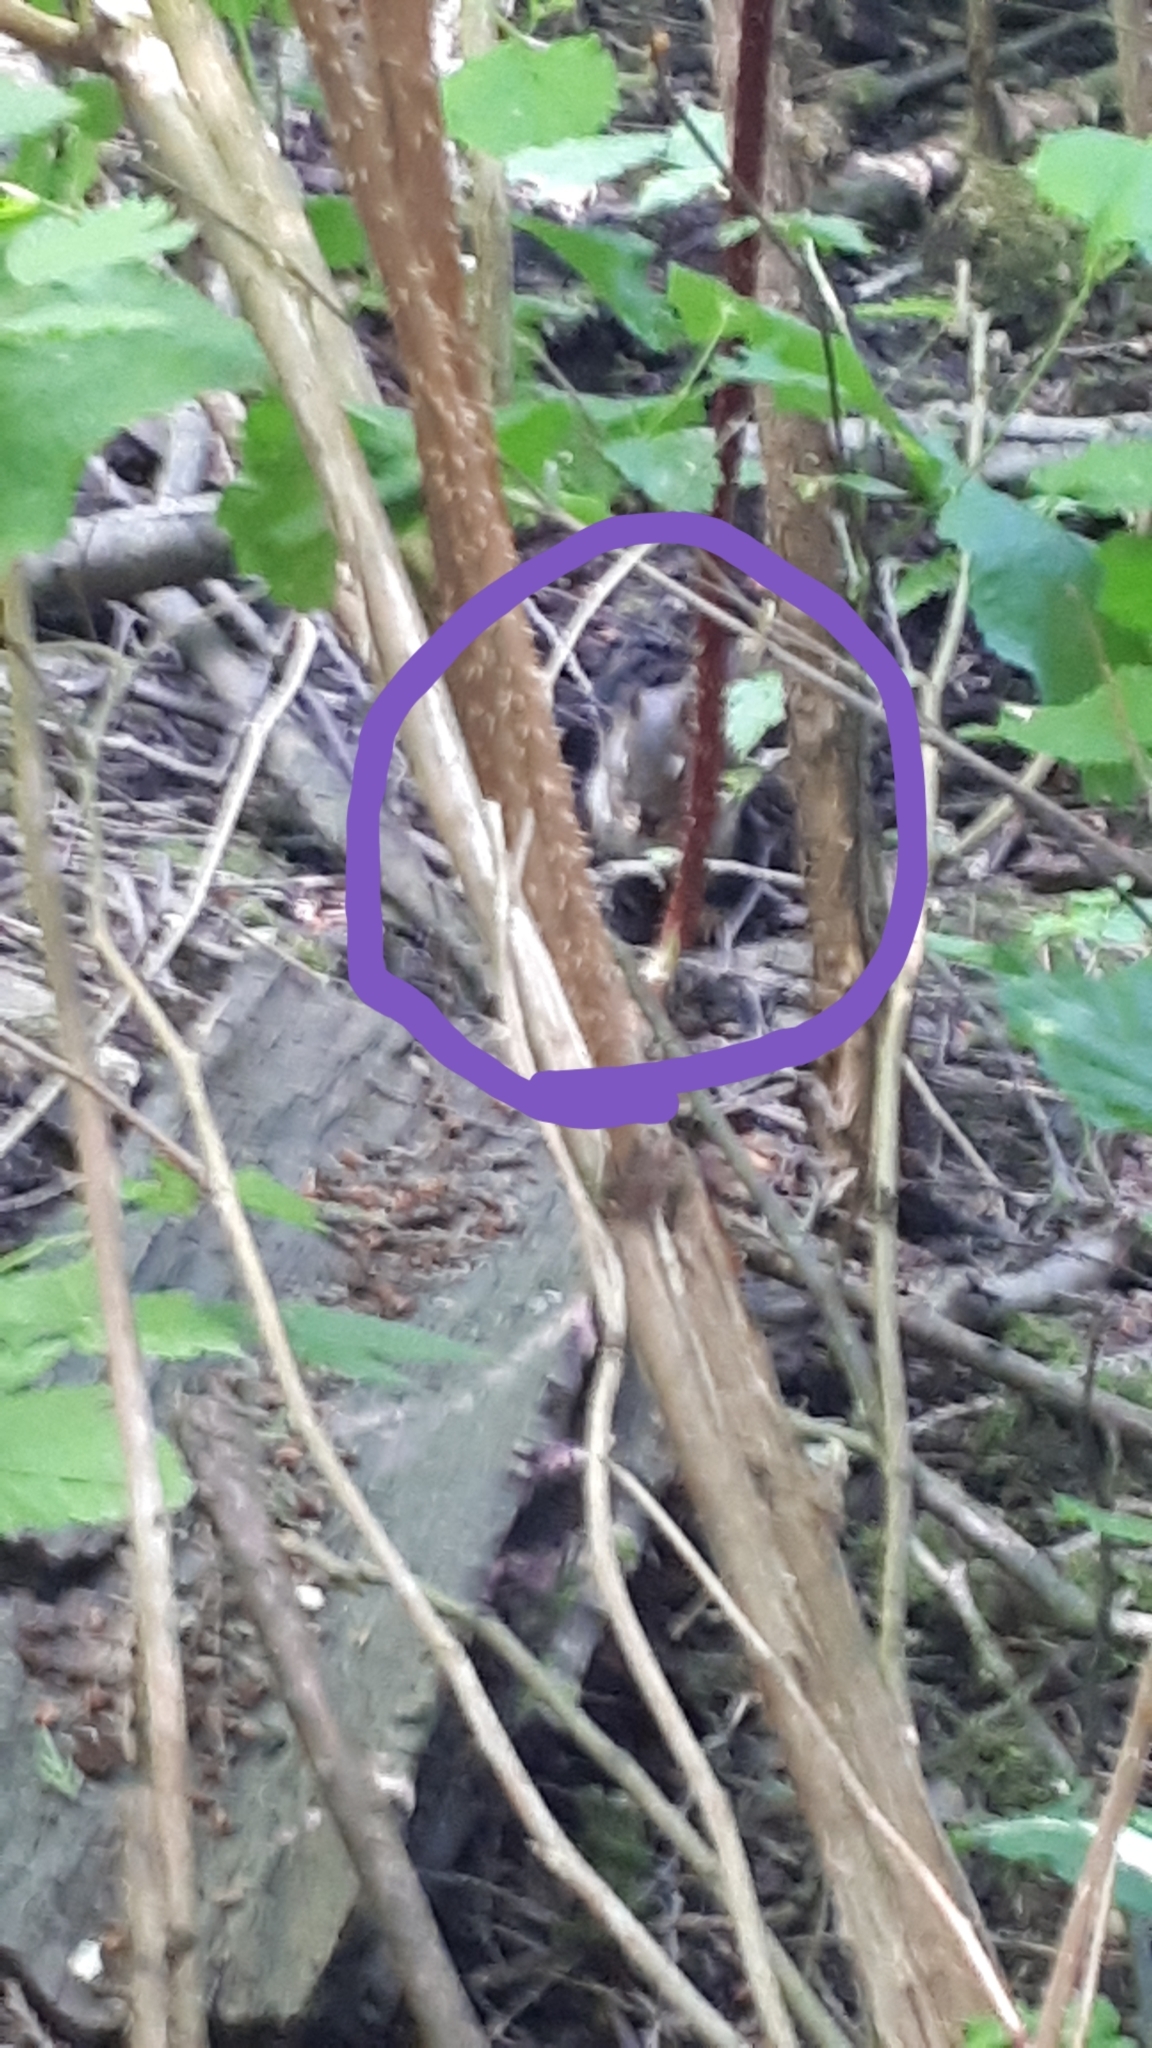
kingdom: Animalia
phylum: Chordata
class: Mammalia
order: Rodentia
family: Sciuridae
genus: Tamiasciurus
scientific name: Tamiasciurus hudsonicus
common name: Red squirrel
